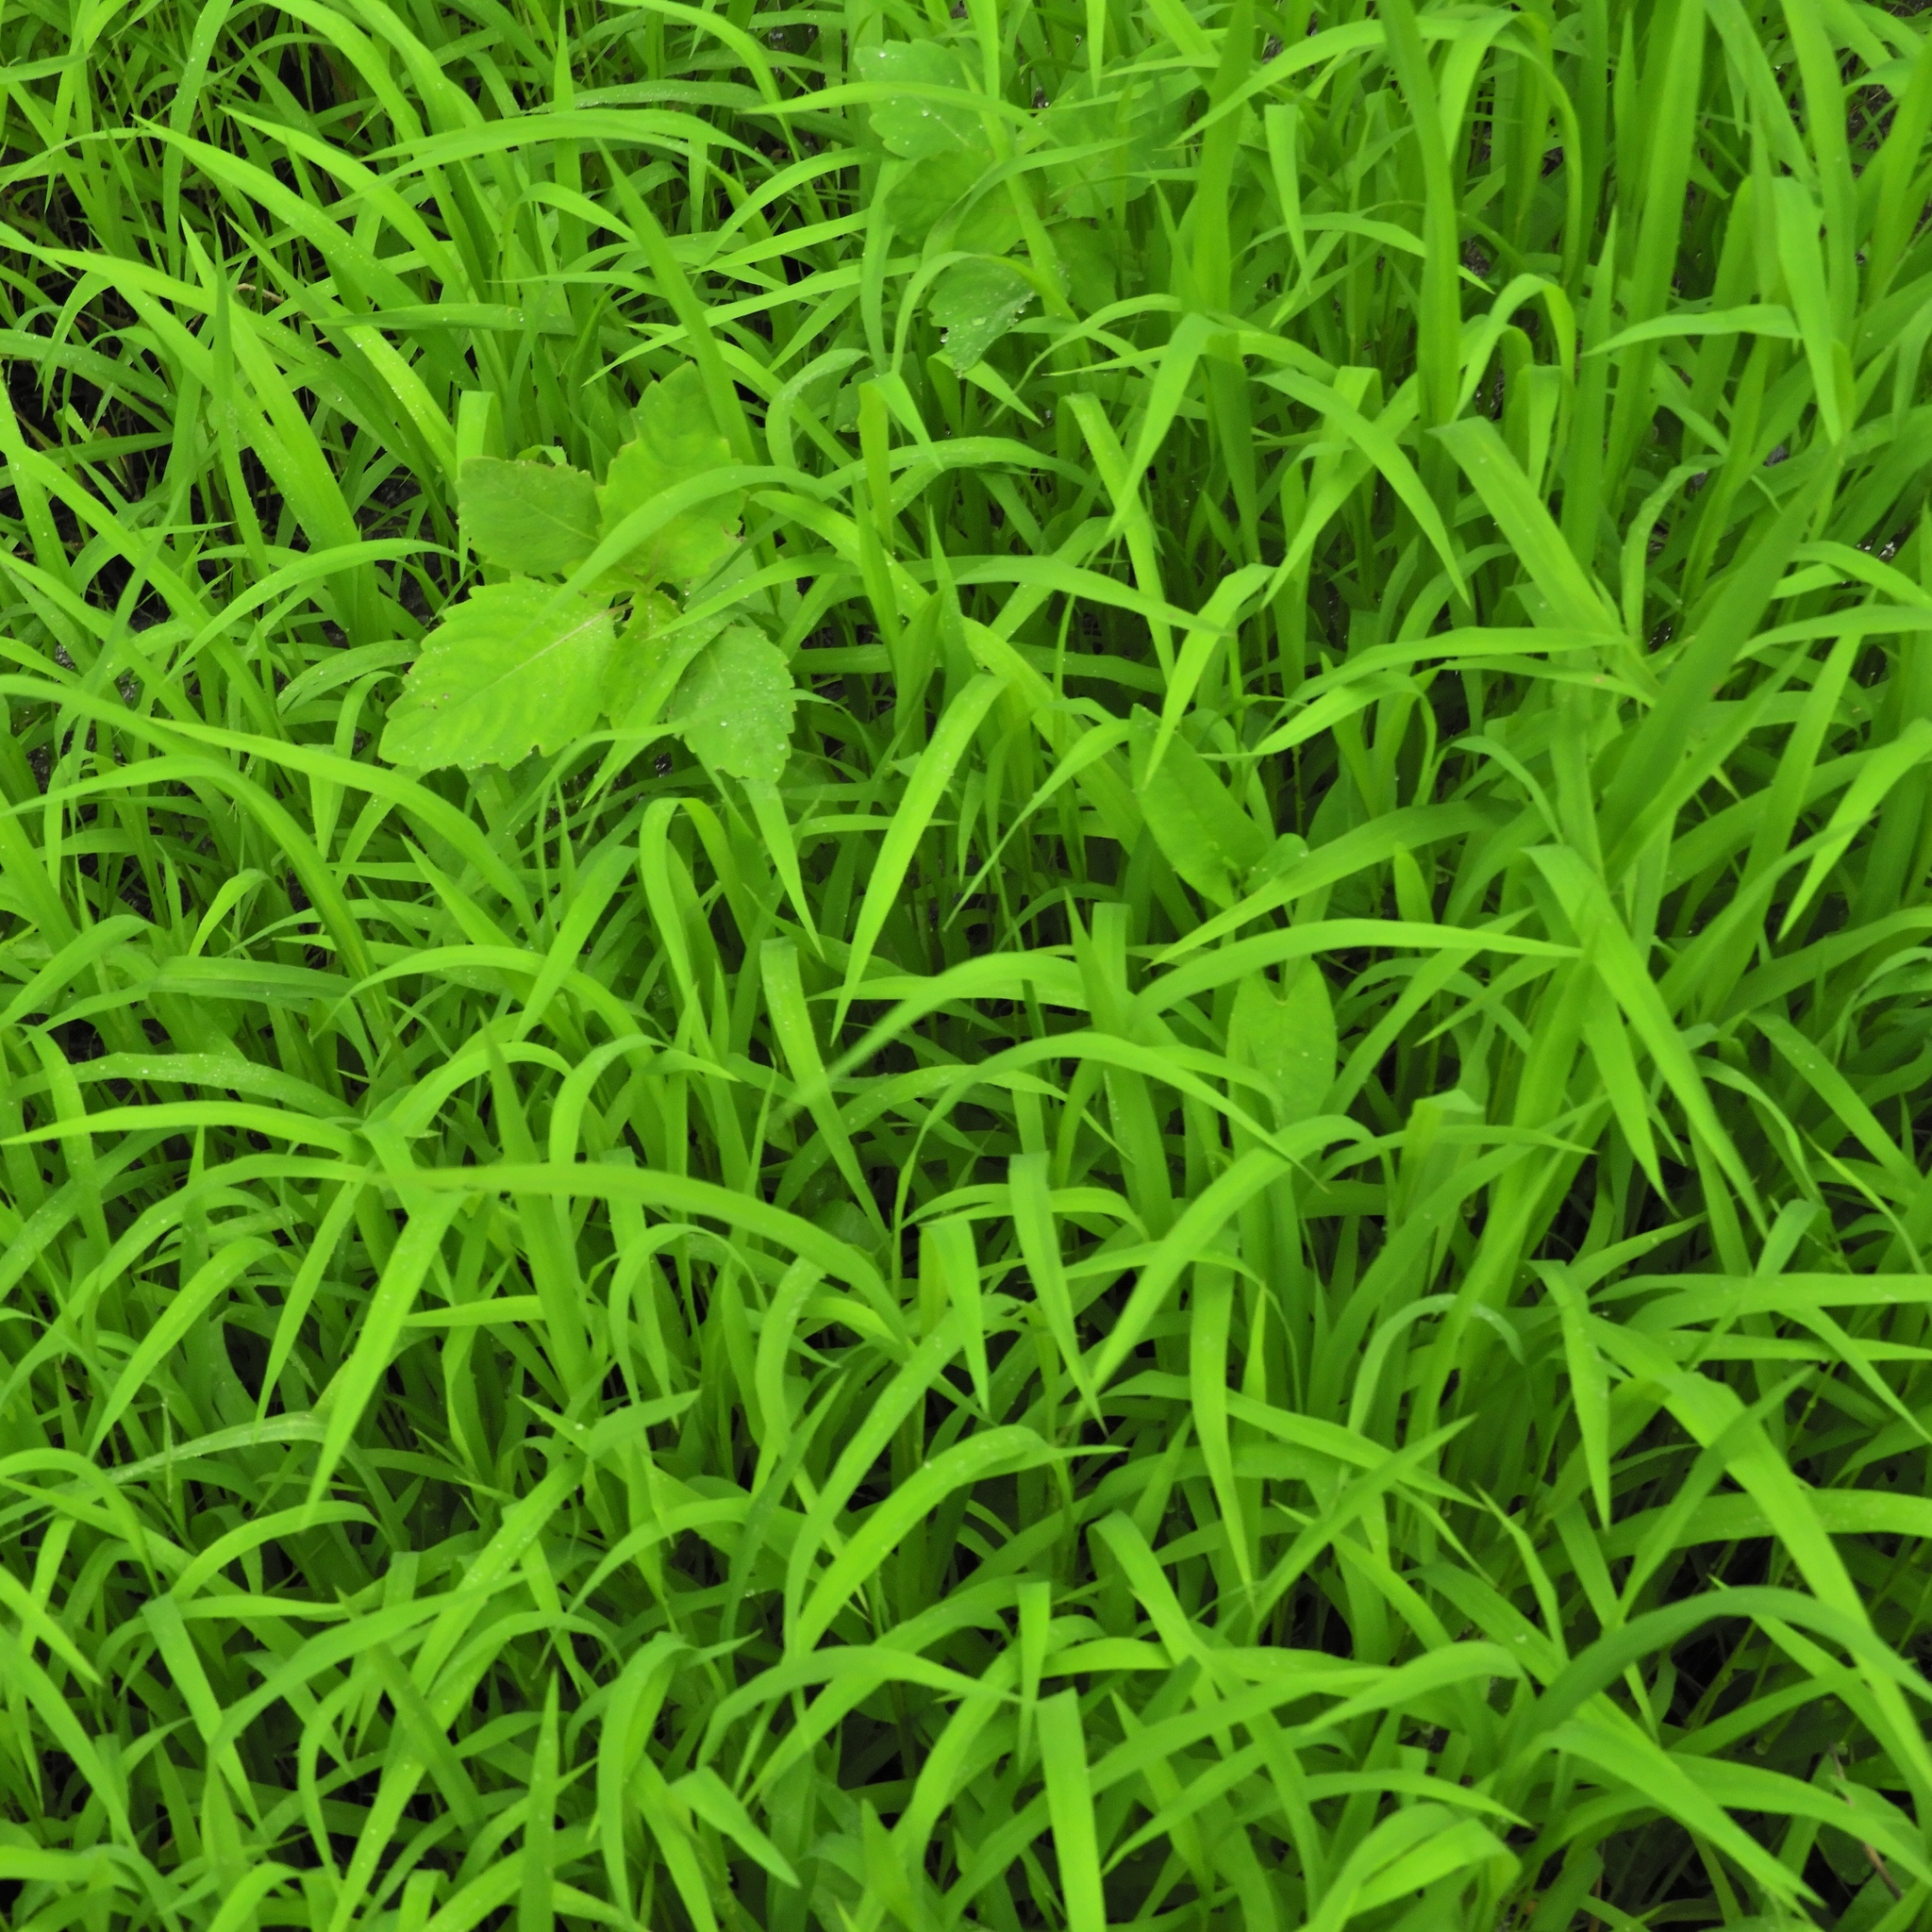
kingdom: Plantae
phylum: Tracheophyta
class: Magnoliopsida
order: Caryophyllales
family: Polygonaceae
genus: Persicaria
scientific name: Persicaria sagittata
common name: American tearthumb
